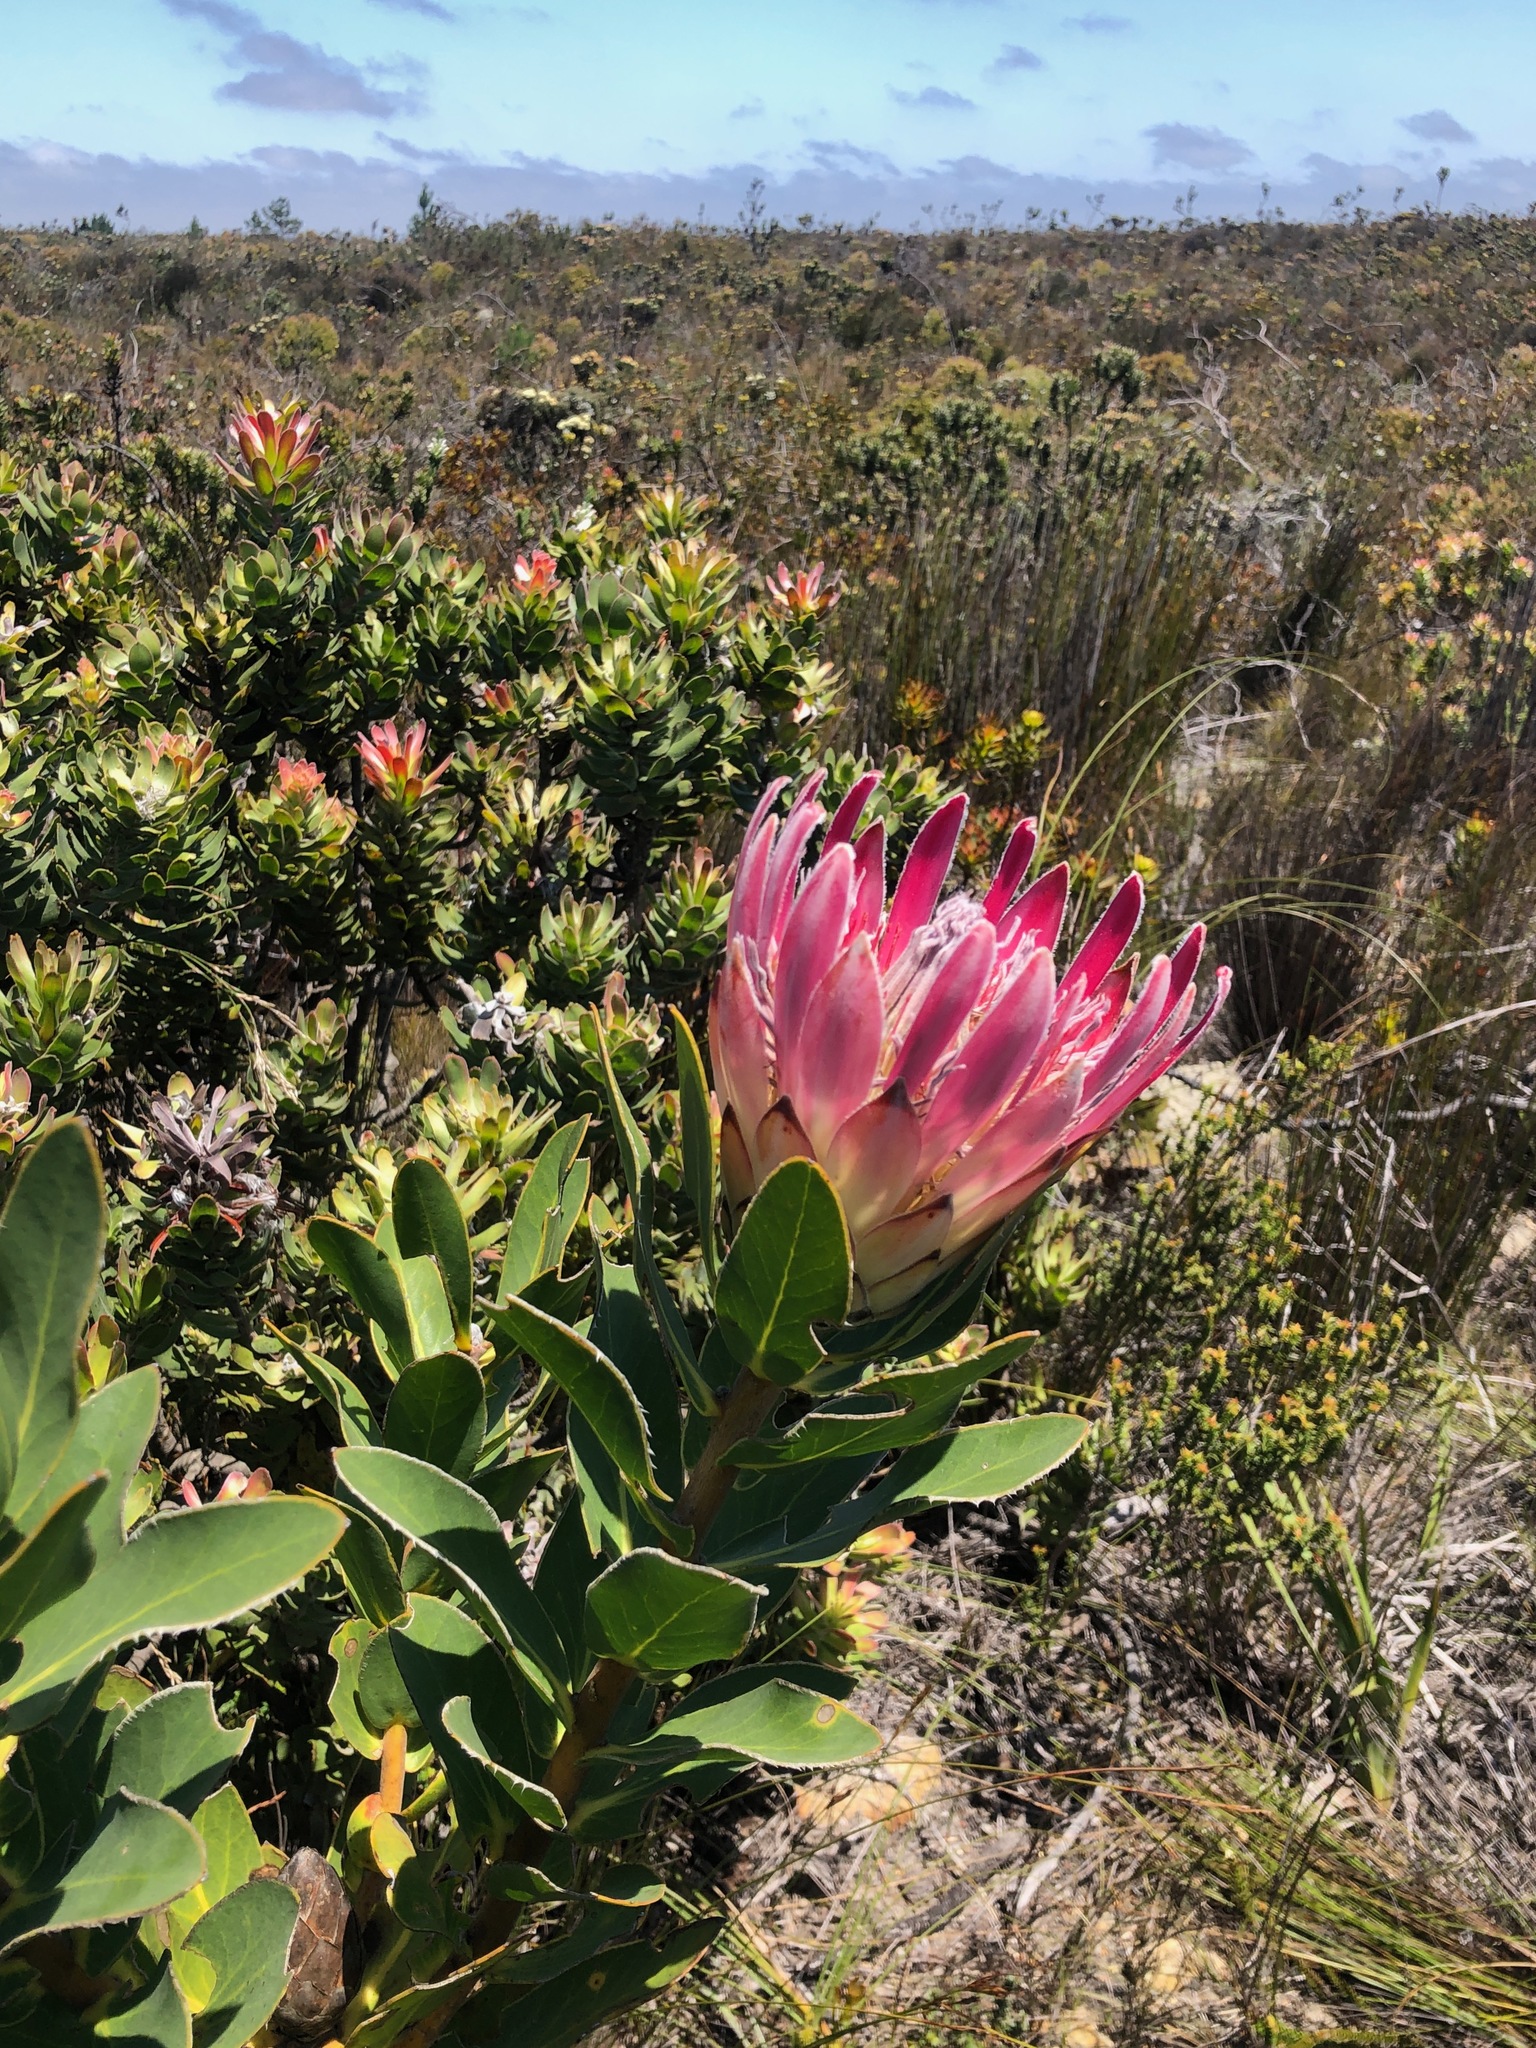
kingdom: Plantae
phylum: Tracheophyta
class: Magnoliopsida
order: Proteales
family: Proteaceae
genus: Protea
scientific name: Protea compacta
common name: Bot river protea
